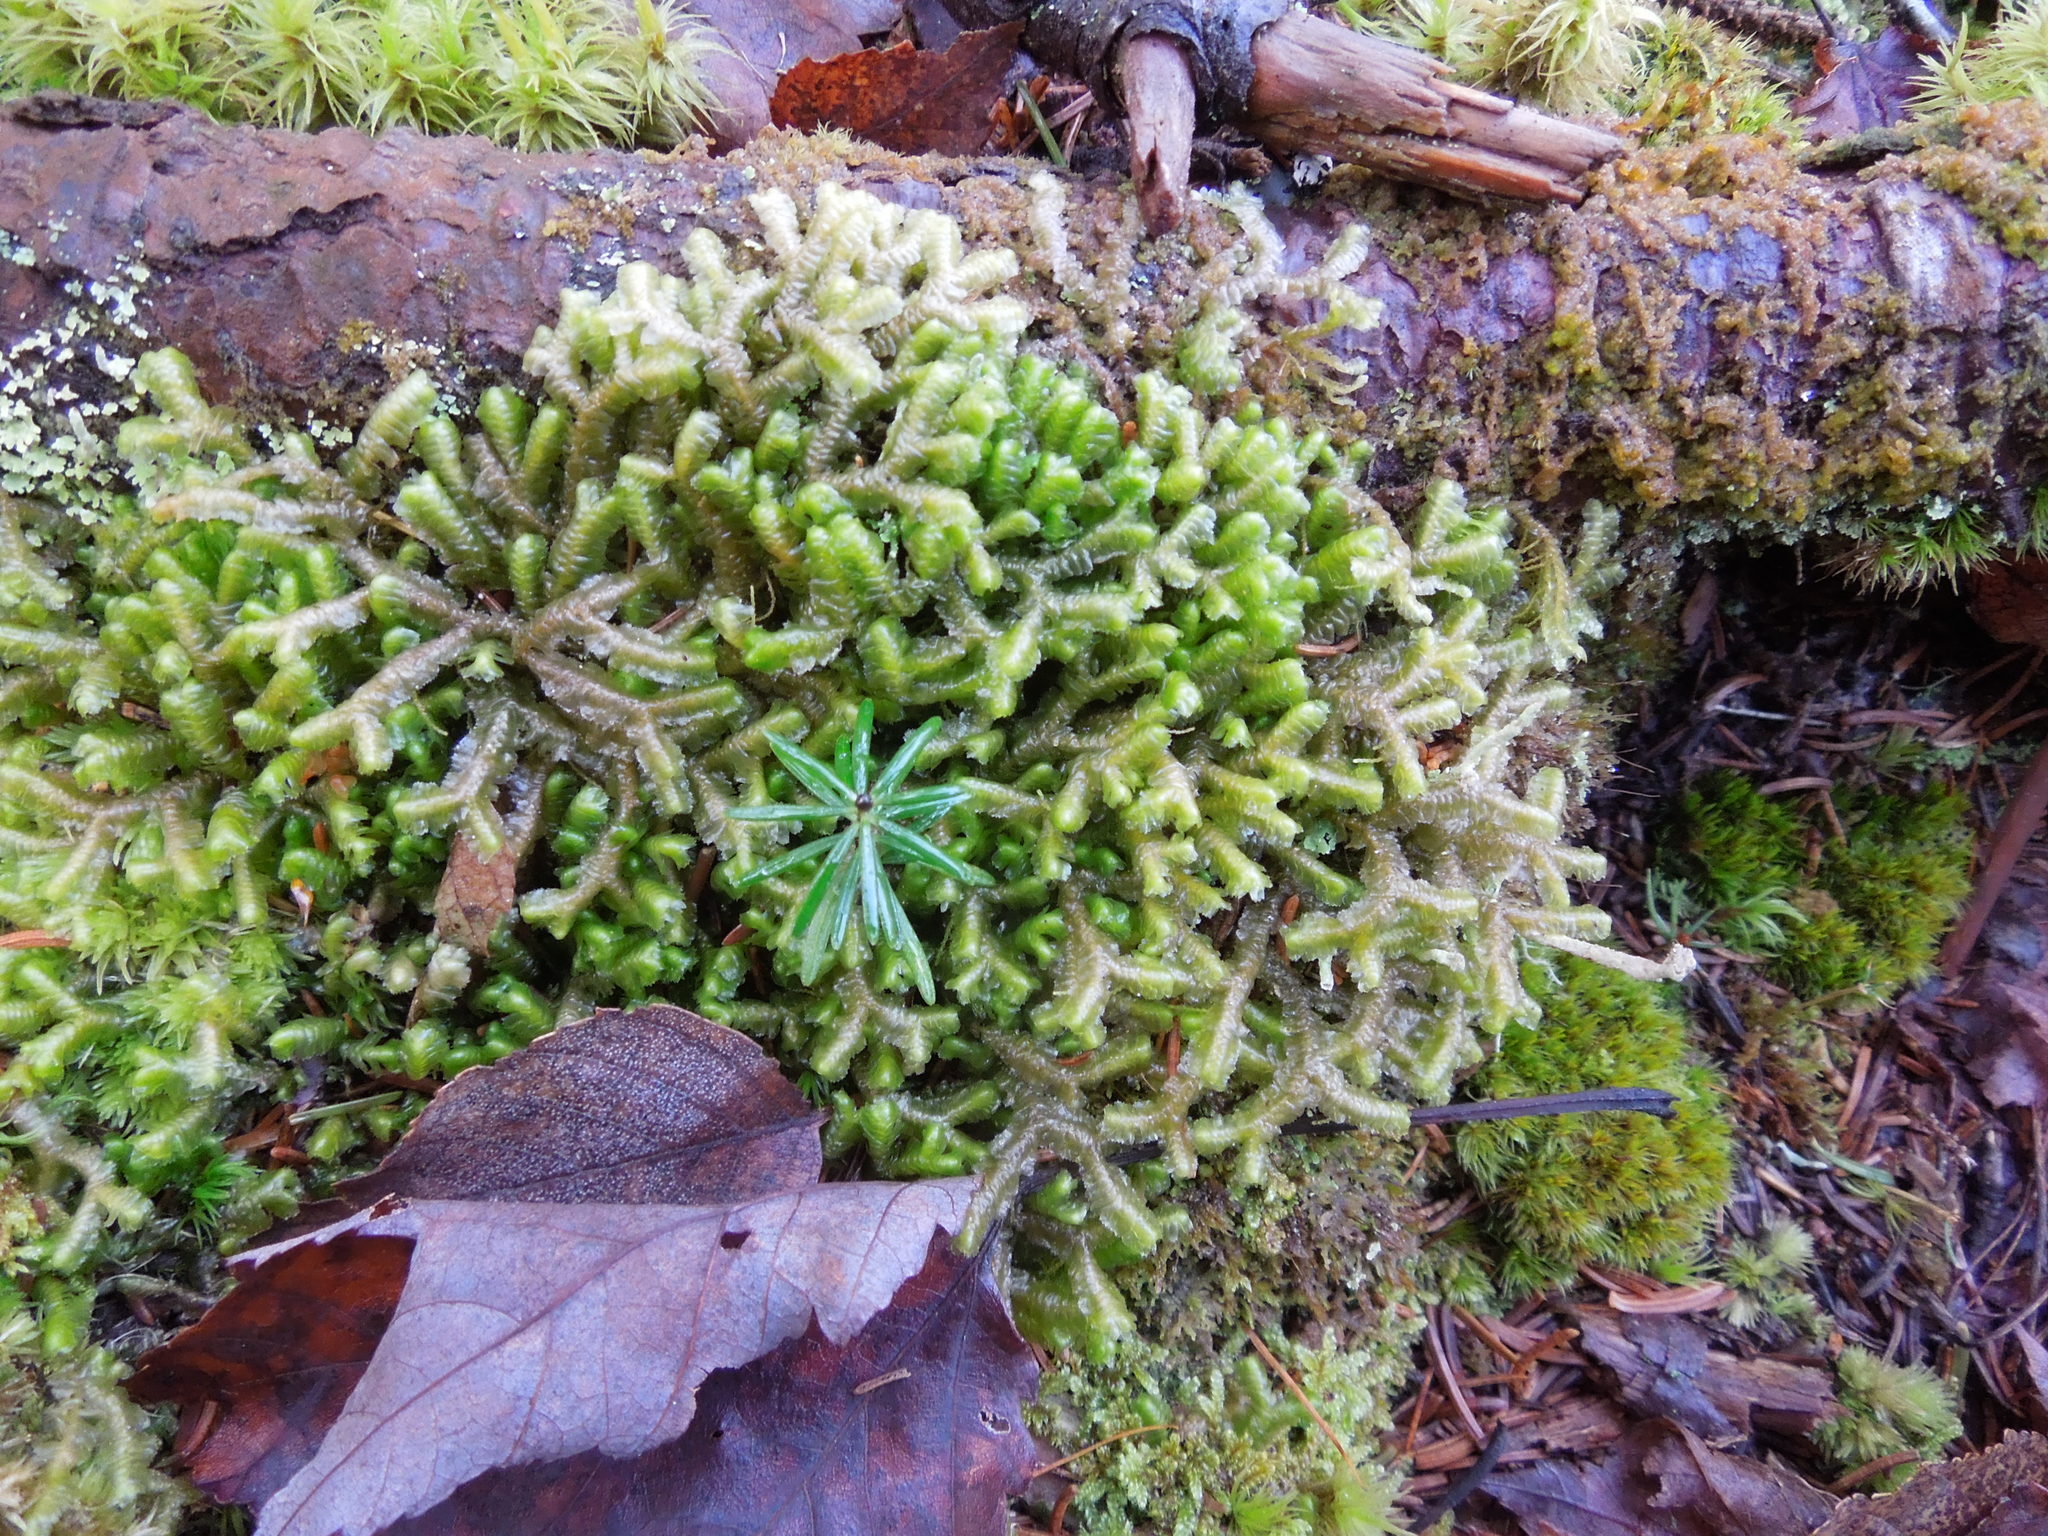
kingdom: Plantae
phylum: Marchantiophyta
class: Jungermanniopsida
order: Jungermanniales
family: Lepidoziaceae
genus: Bazzania
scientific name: Bazzania trilobata
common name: Three-lobed whipwort
